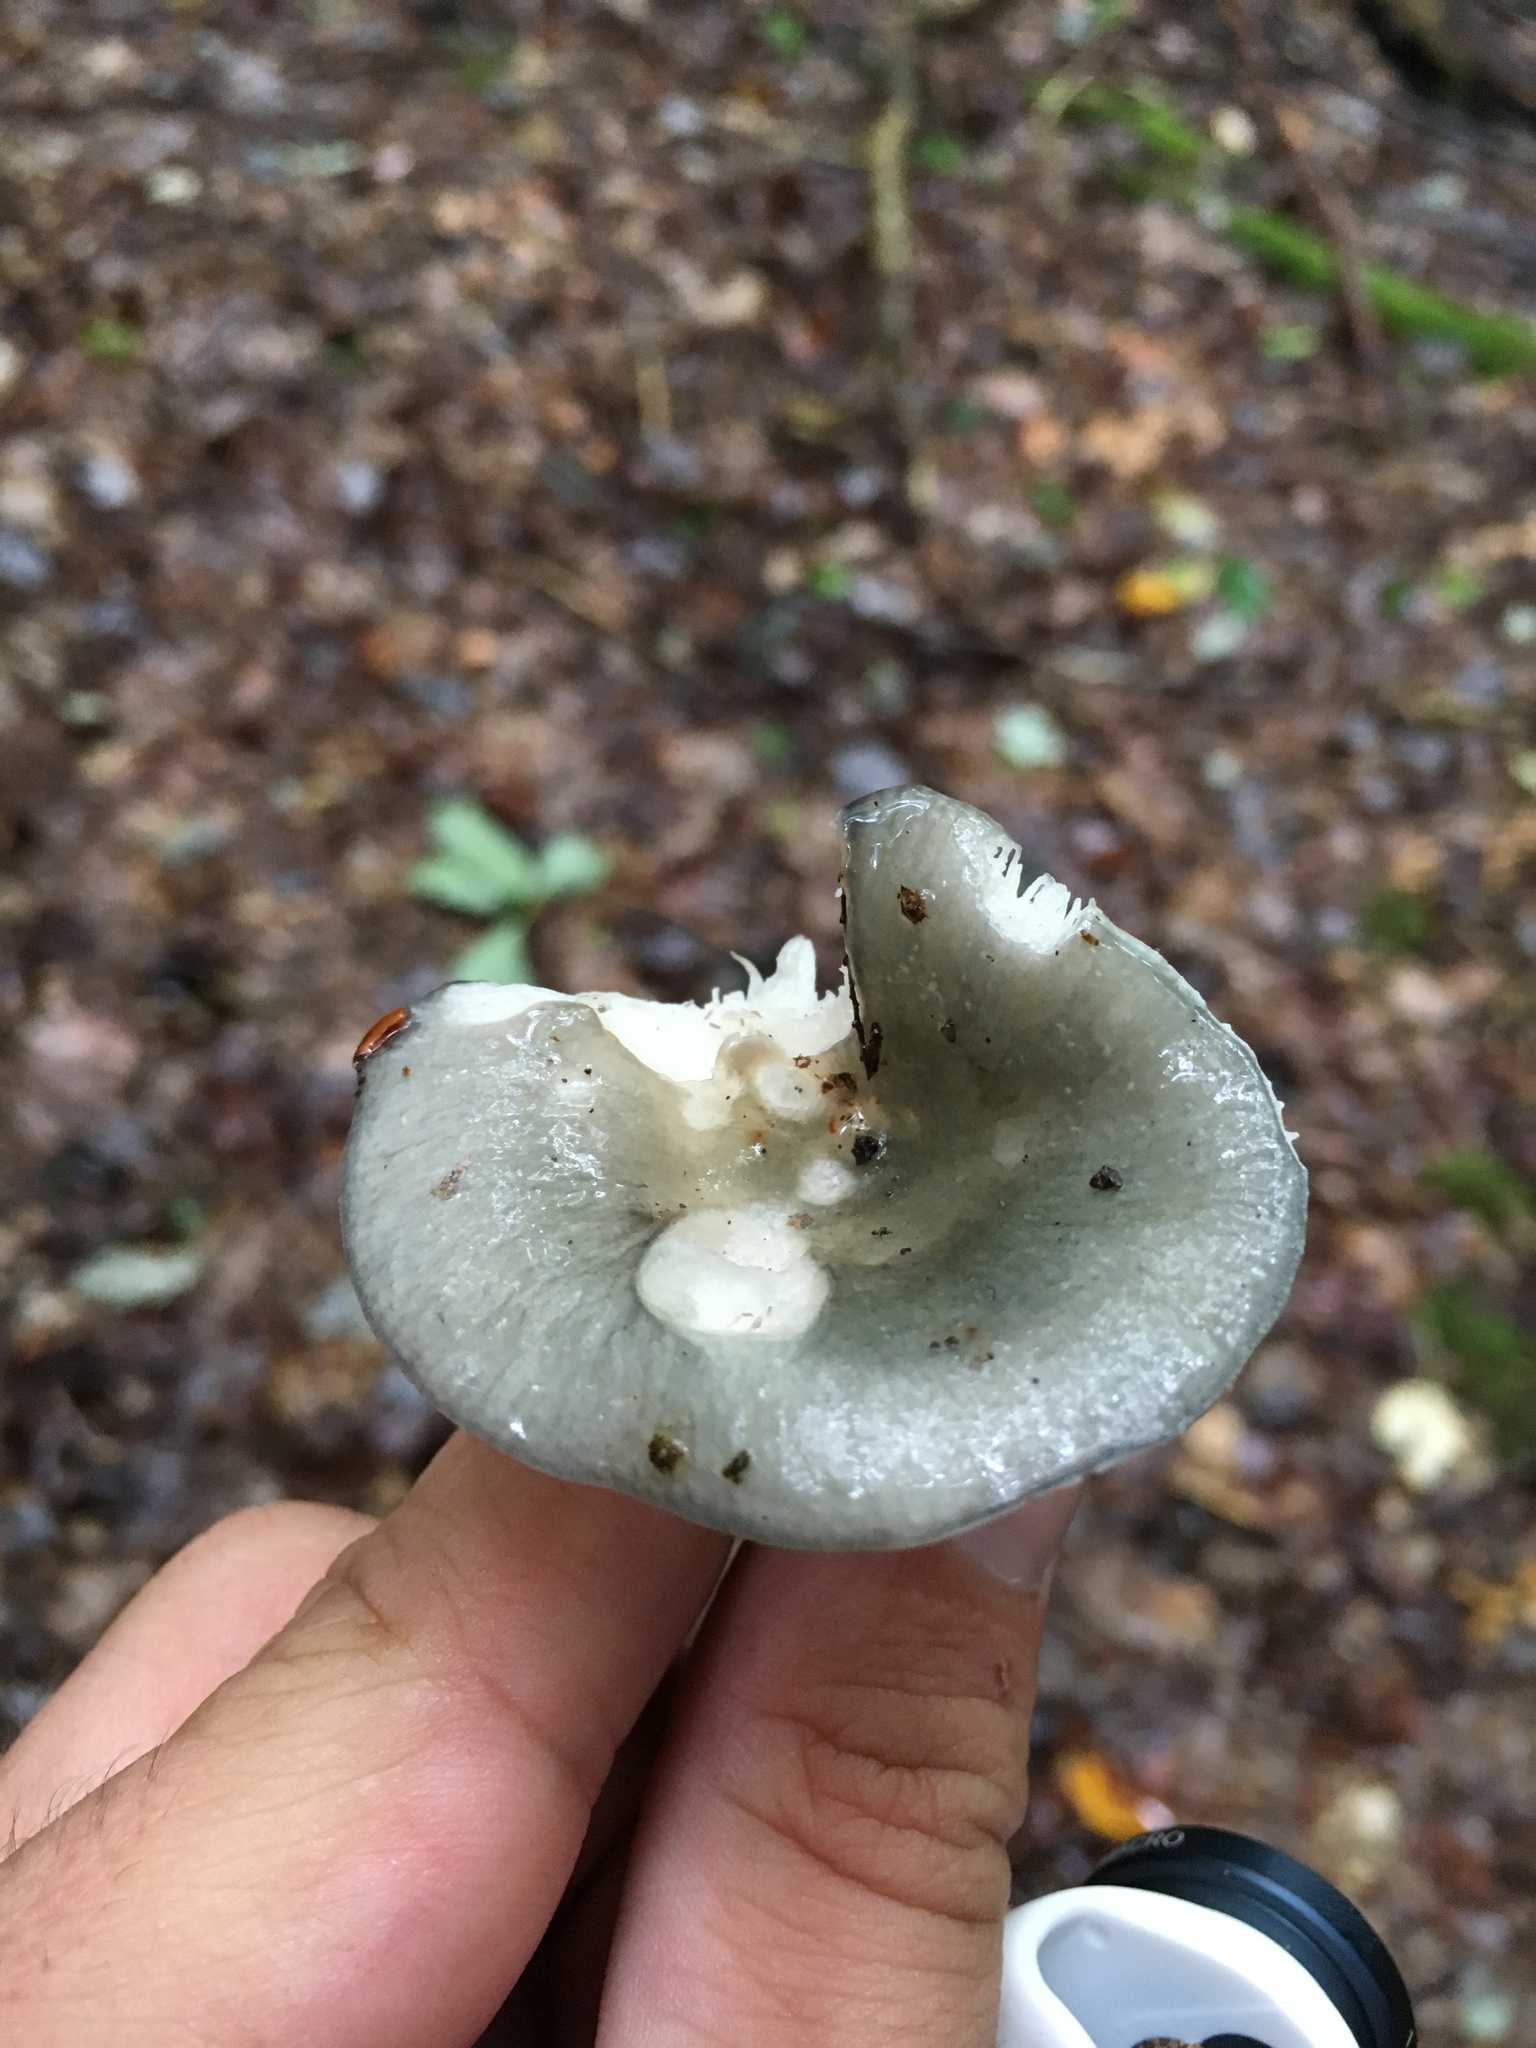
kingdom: Fungi
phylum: Basidiomycota
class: Agaricomycetes
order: Russulales
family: Russulaceae
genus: Russula
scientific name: Russula redolens
